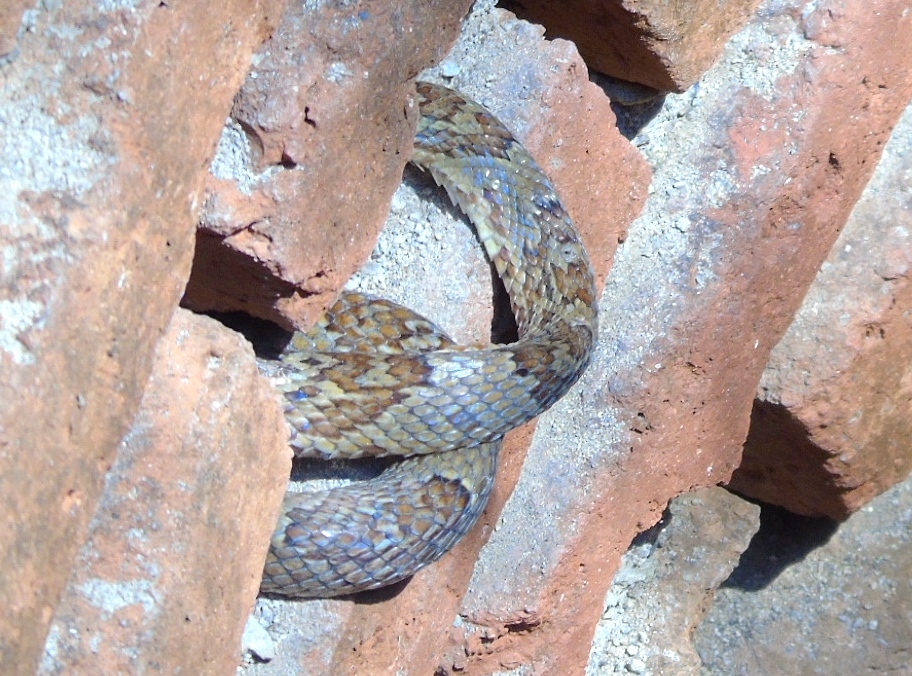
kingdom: Animalia
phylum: Chordata
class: Squamata
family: Colubridae
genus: Trimorphodon
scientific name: Trimorphodon paucimaculatus
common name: Sinaloan lyresnake
